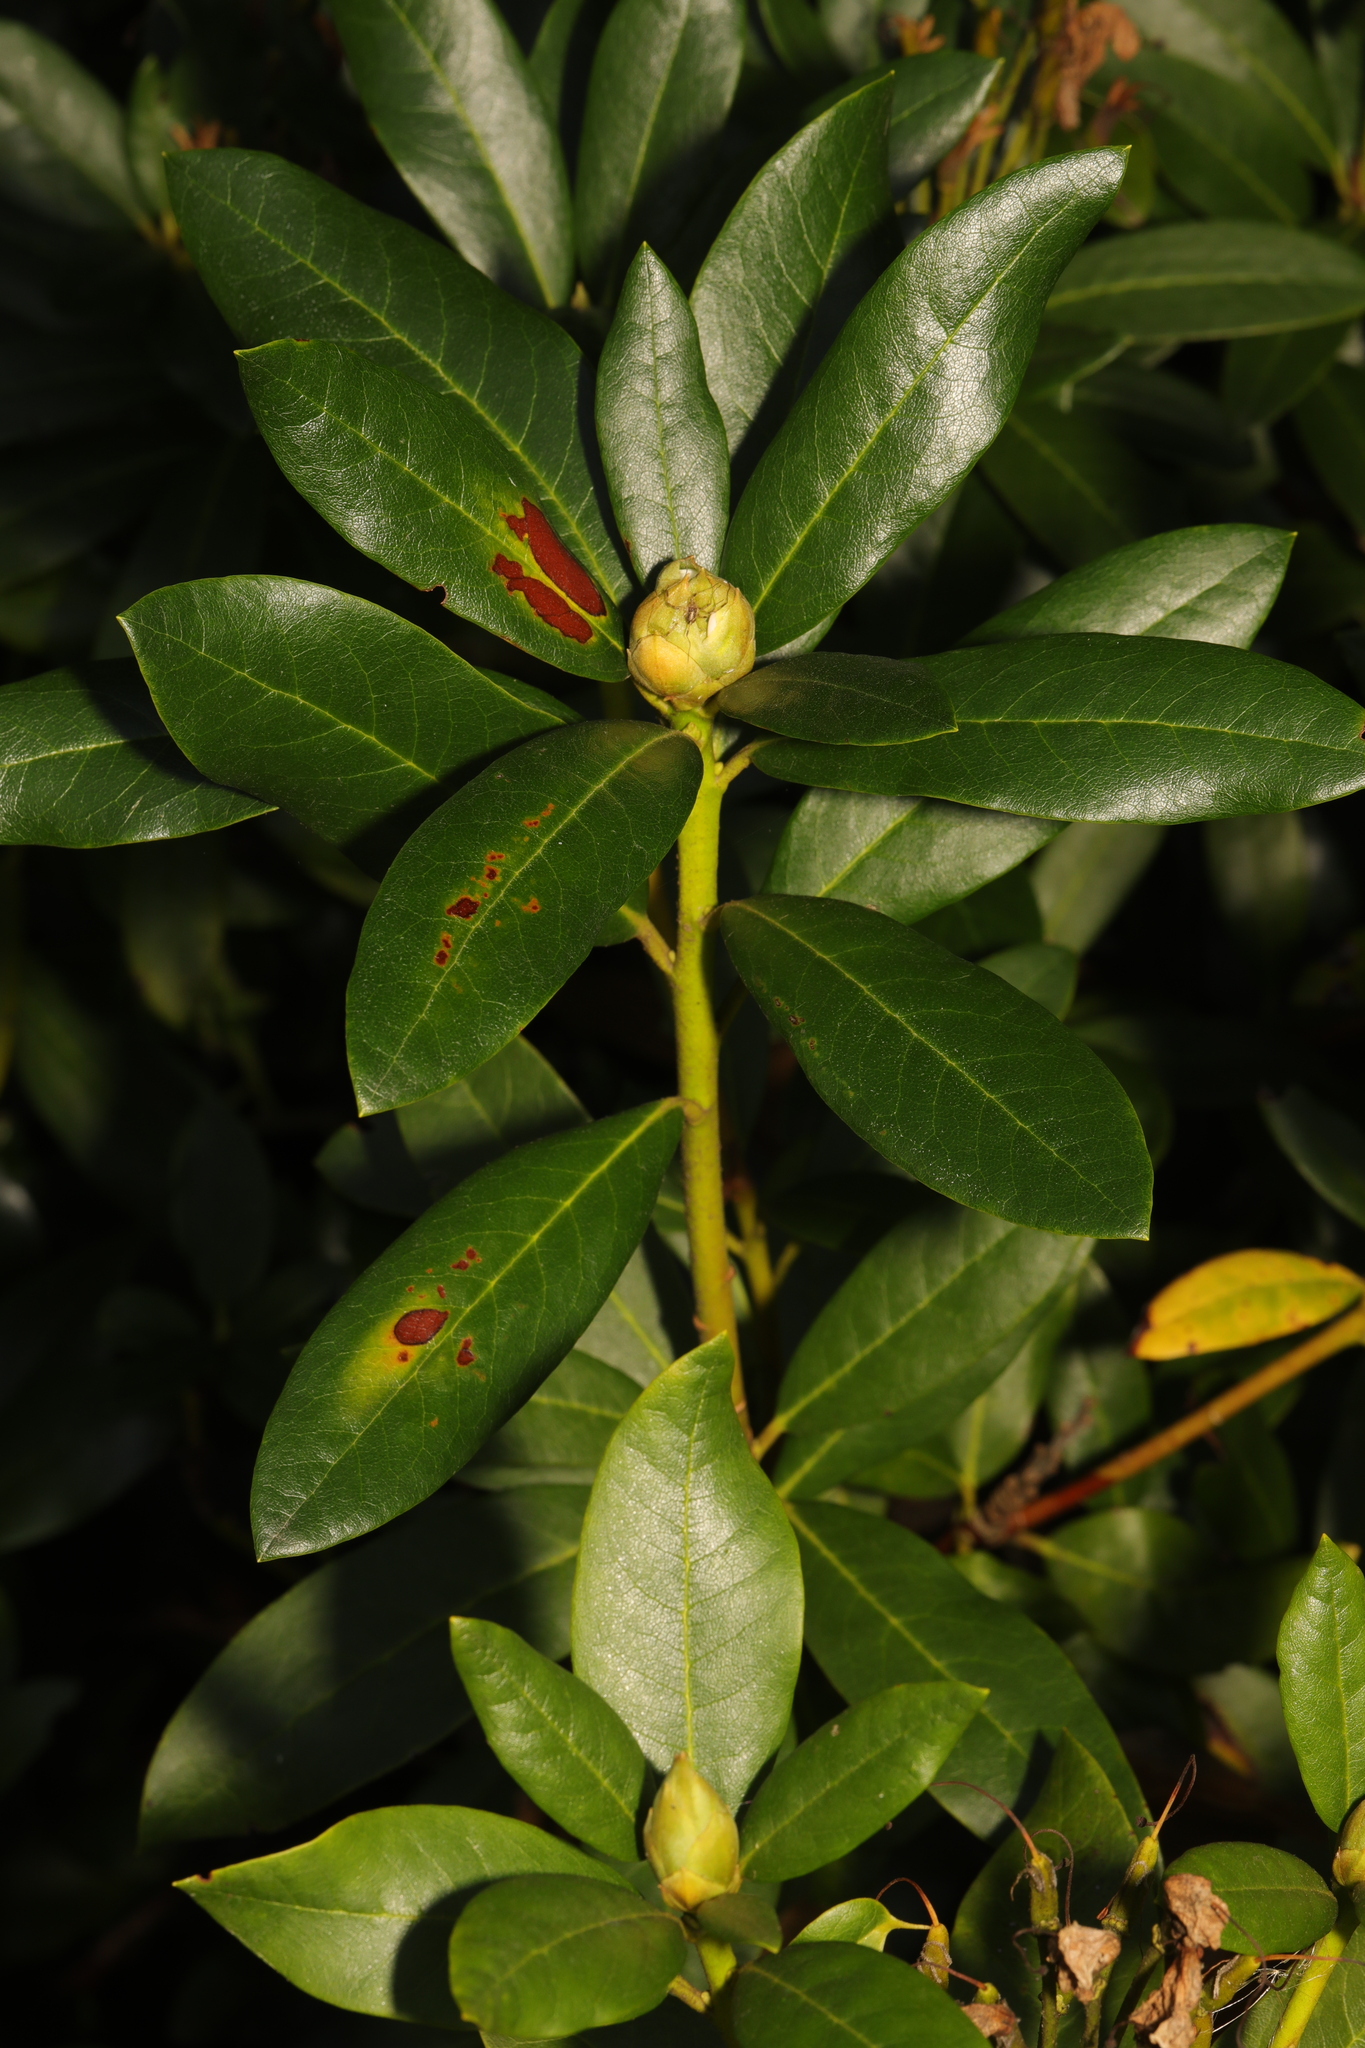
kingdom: Plantae
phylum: Tracheophyta
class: Magnoliopsida
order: Ericales
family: Ericaceae
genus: Rhododendron
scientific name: Rhododendron ponticum
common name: Rhododendron
